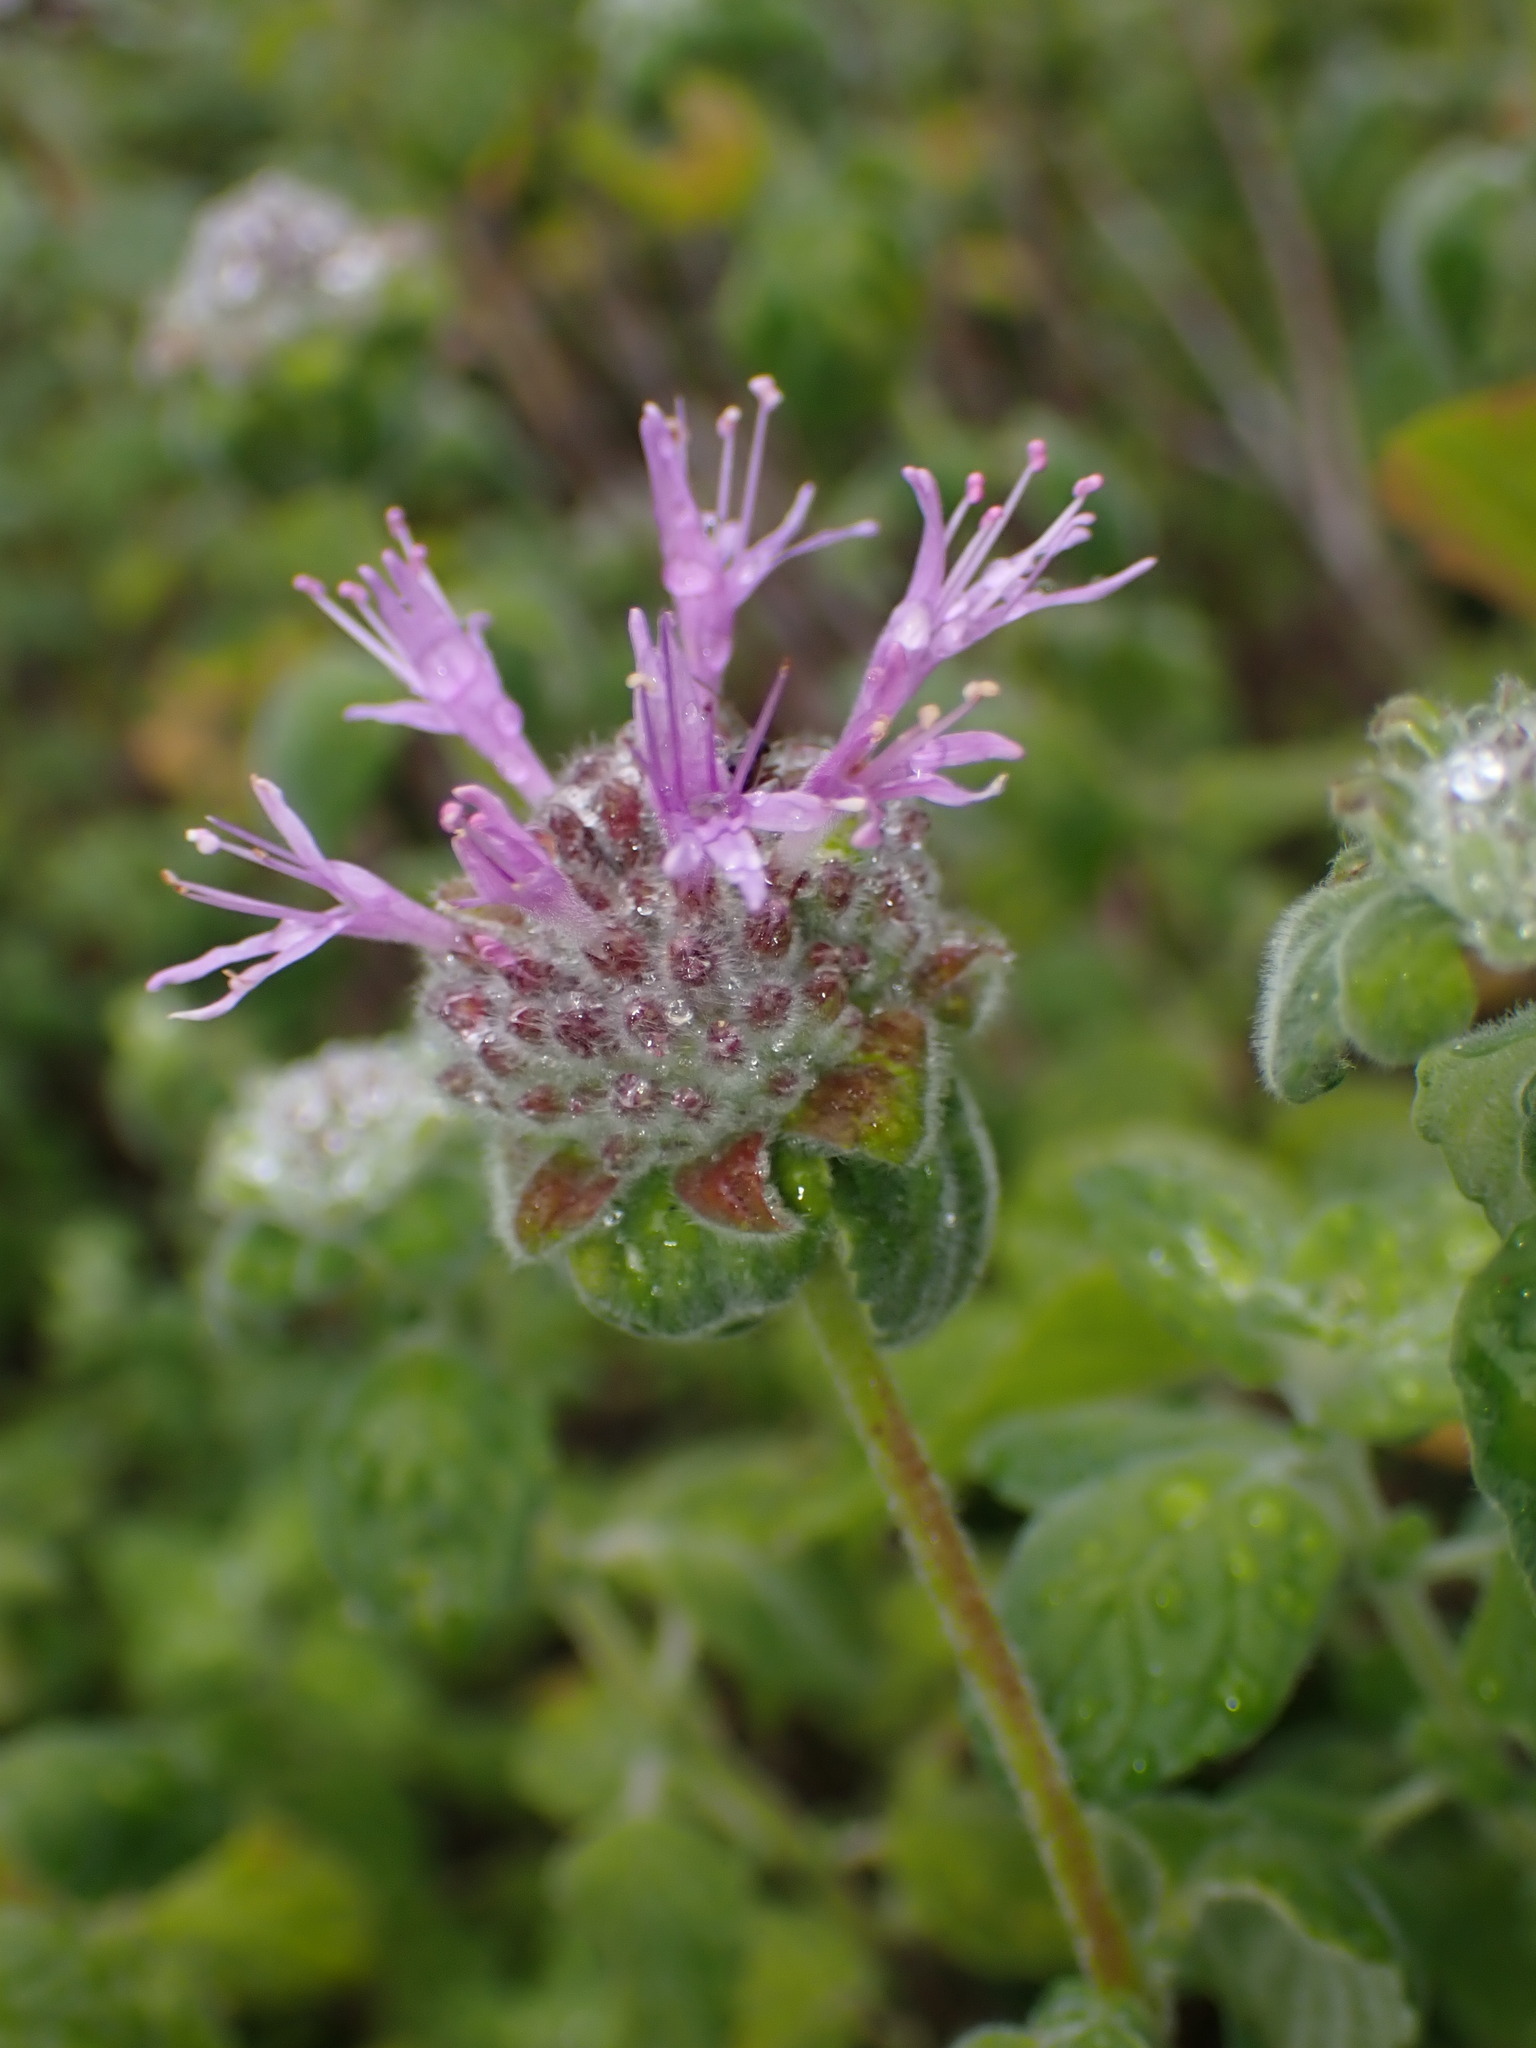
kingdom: Plantae
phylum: Tracheophyta
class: Magnoliopsida
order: Lamiales
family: Lamiaceae
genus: Monardella
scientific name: Monardella odoratissima
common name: Pacific monardella
